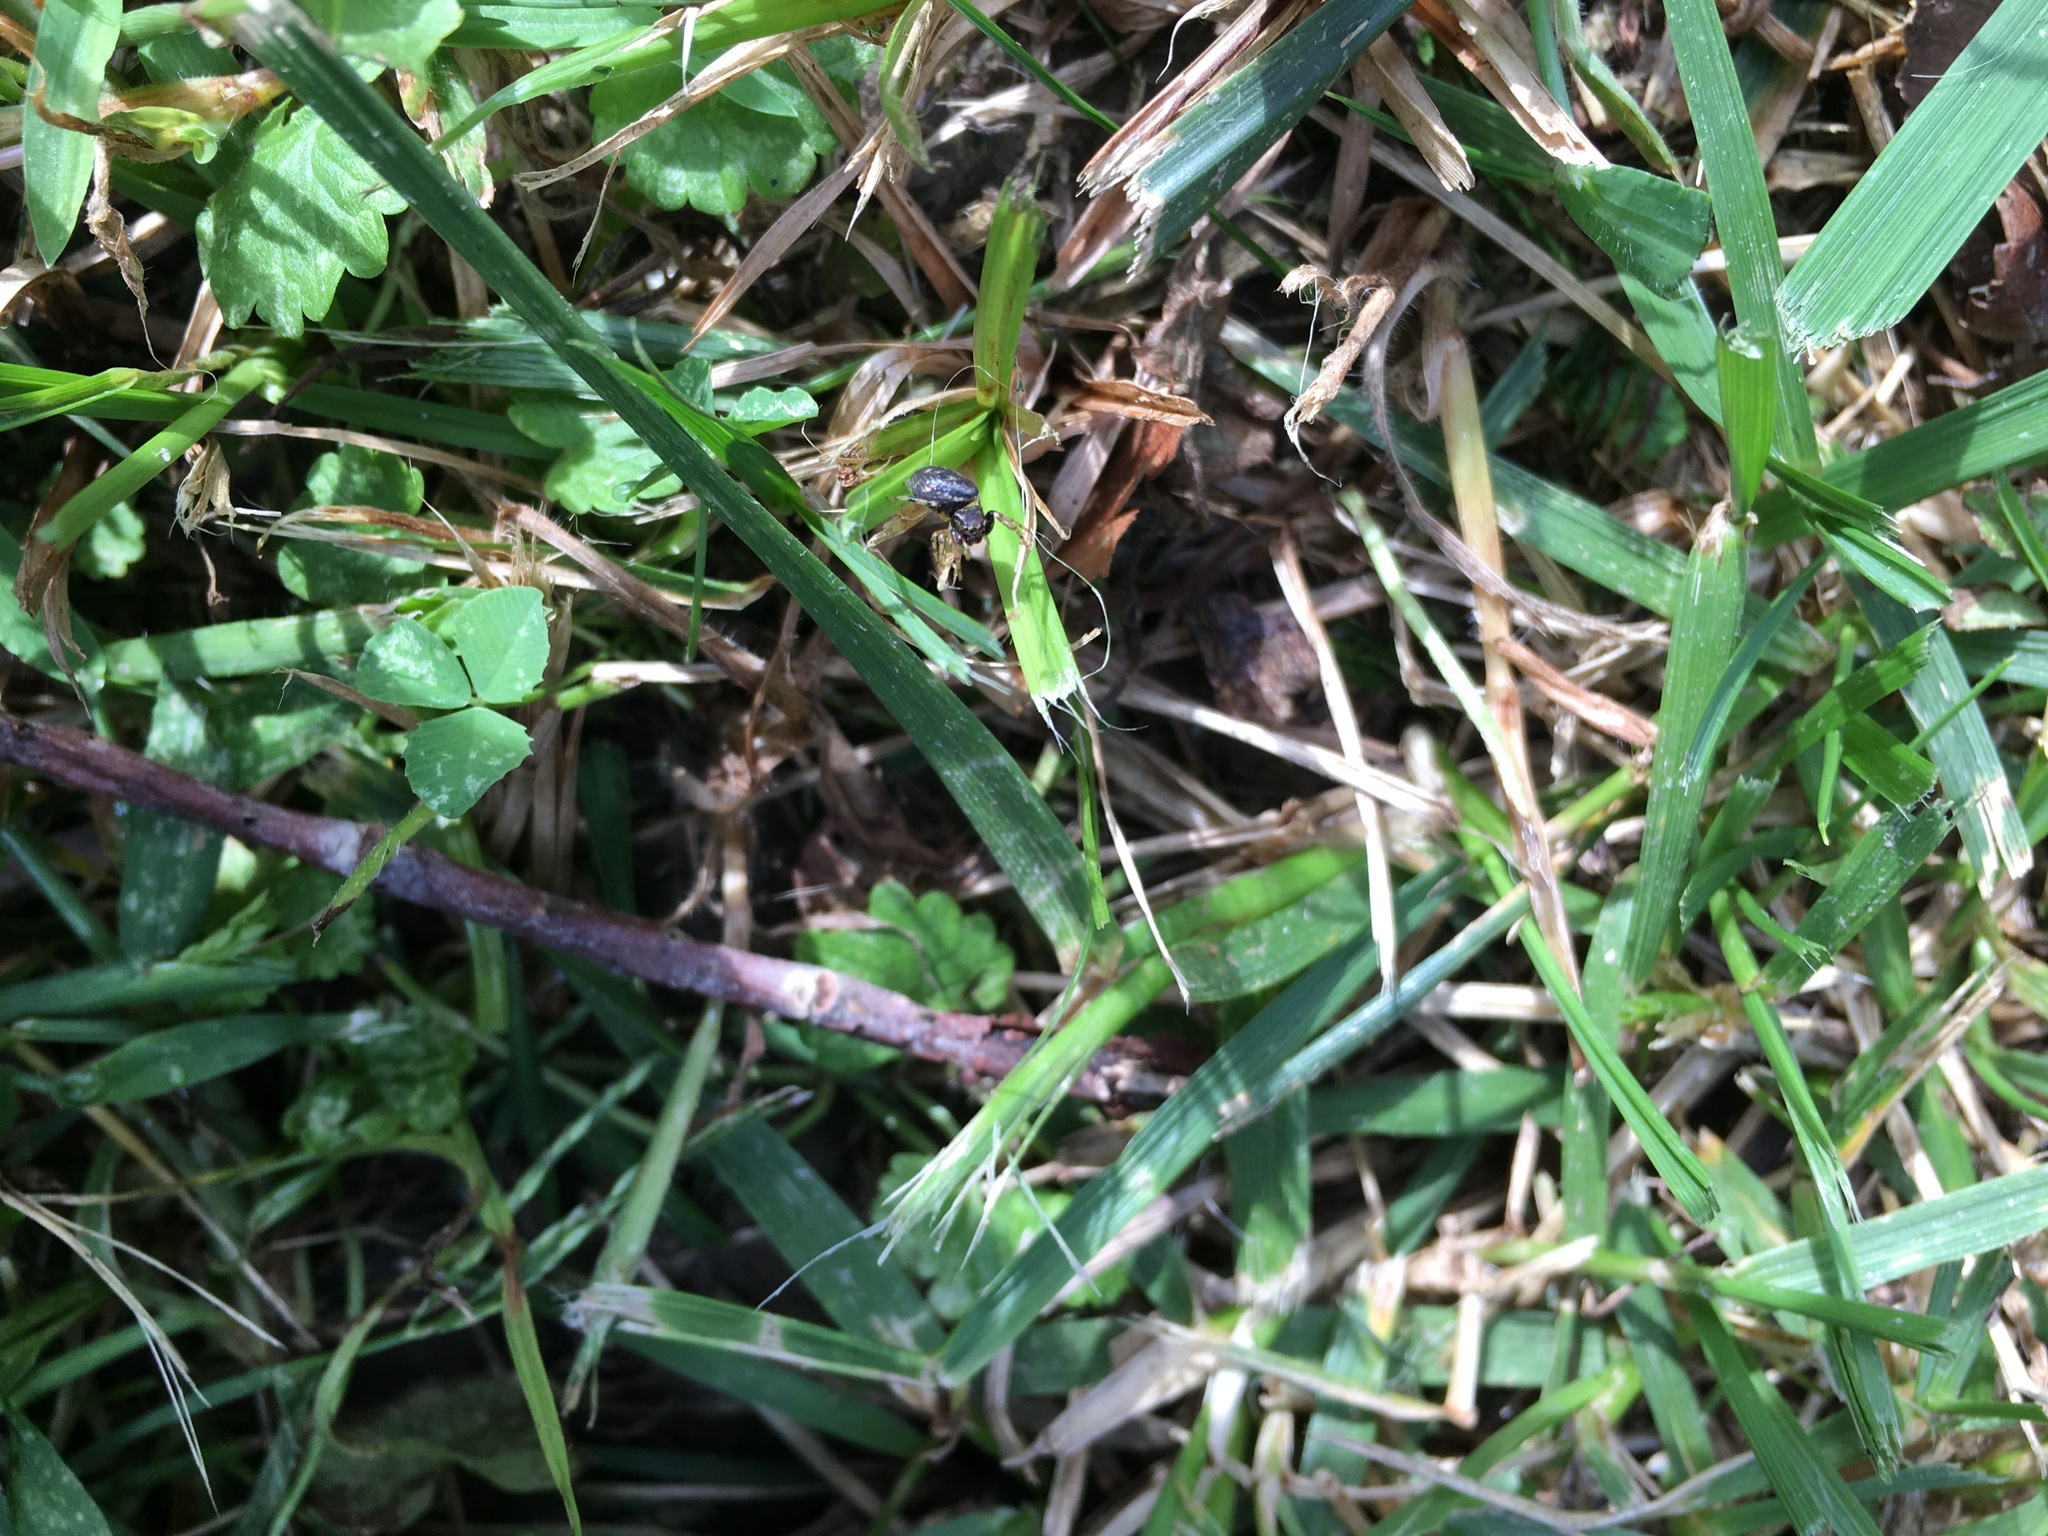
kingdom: Animalia
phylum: Arthropoda
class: Arachnida
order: Araneae
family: Salticidae
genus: Zygoballus
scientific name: Zygoballus rufipes
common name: Jumping spiders
